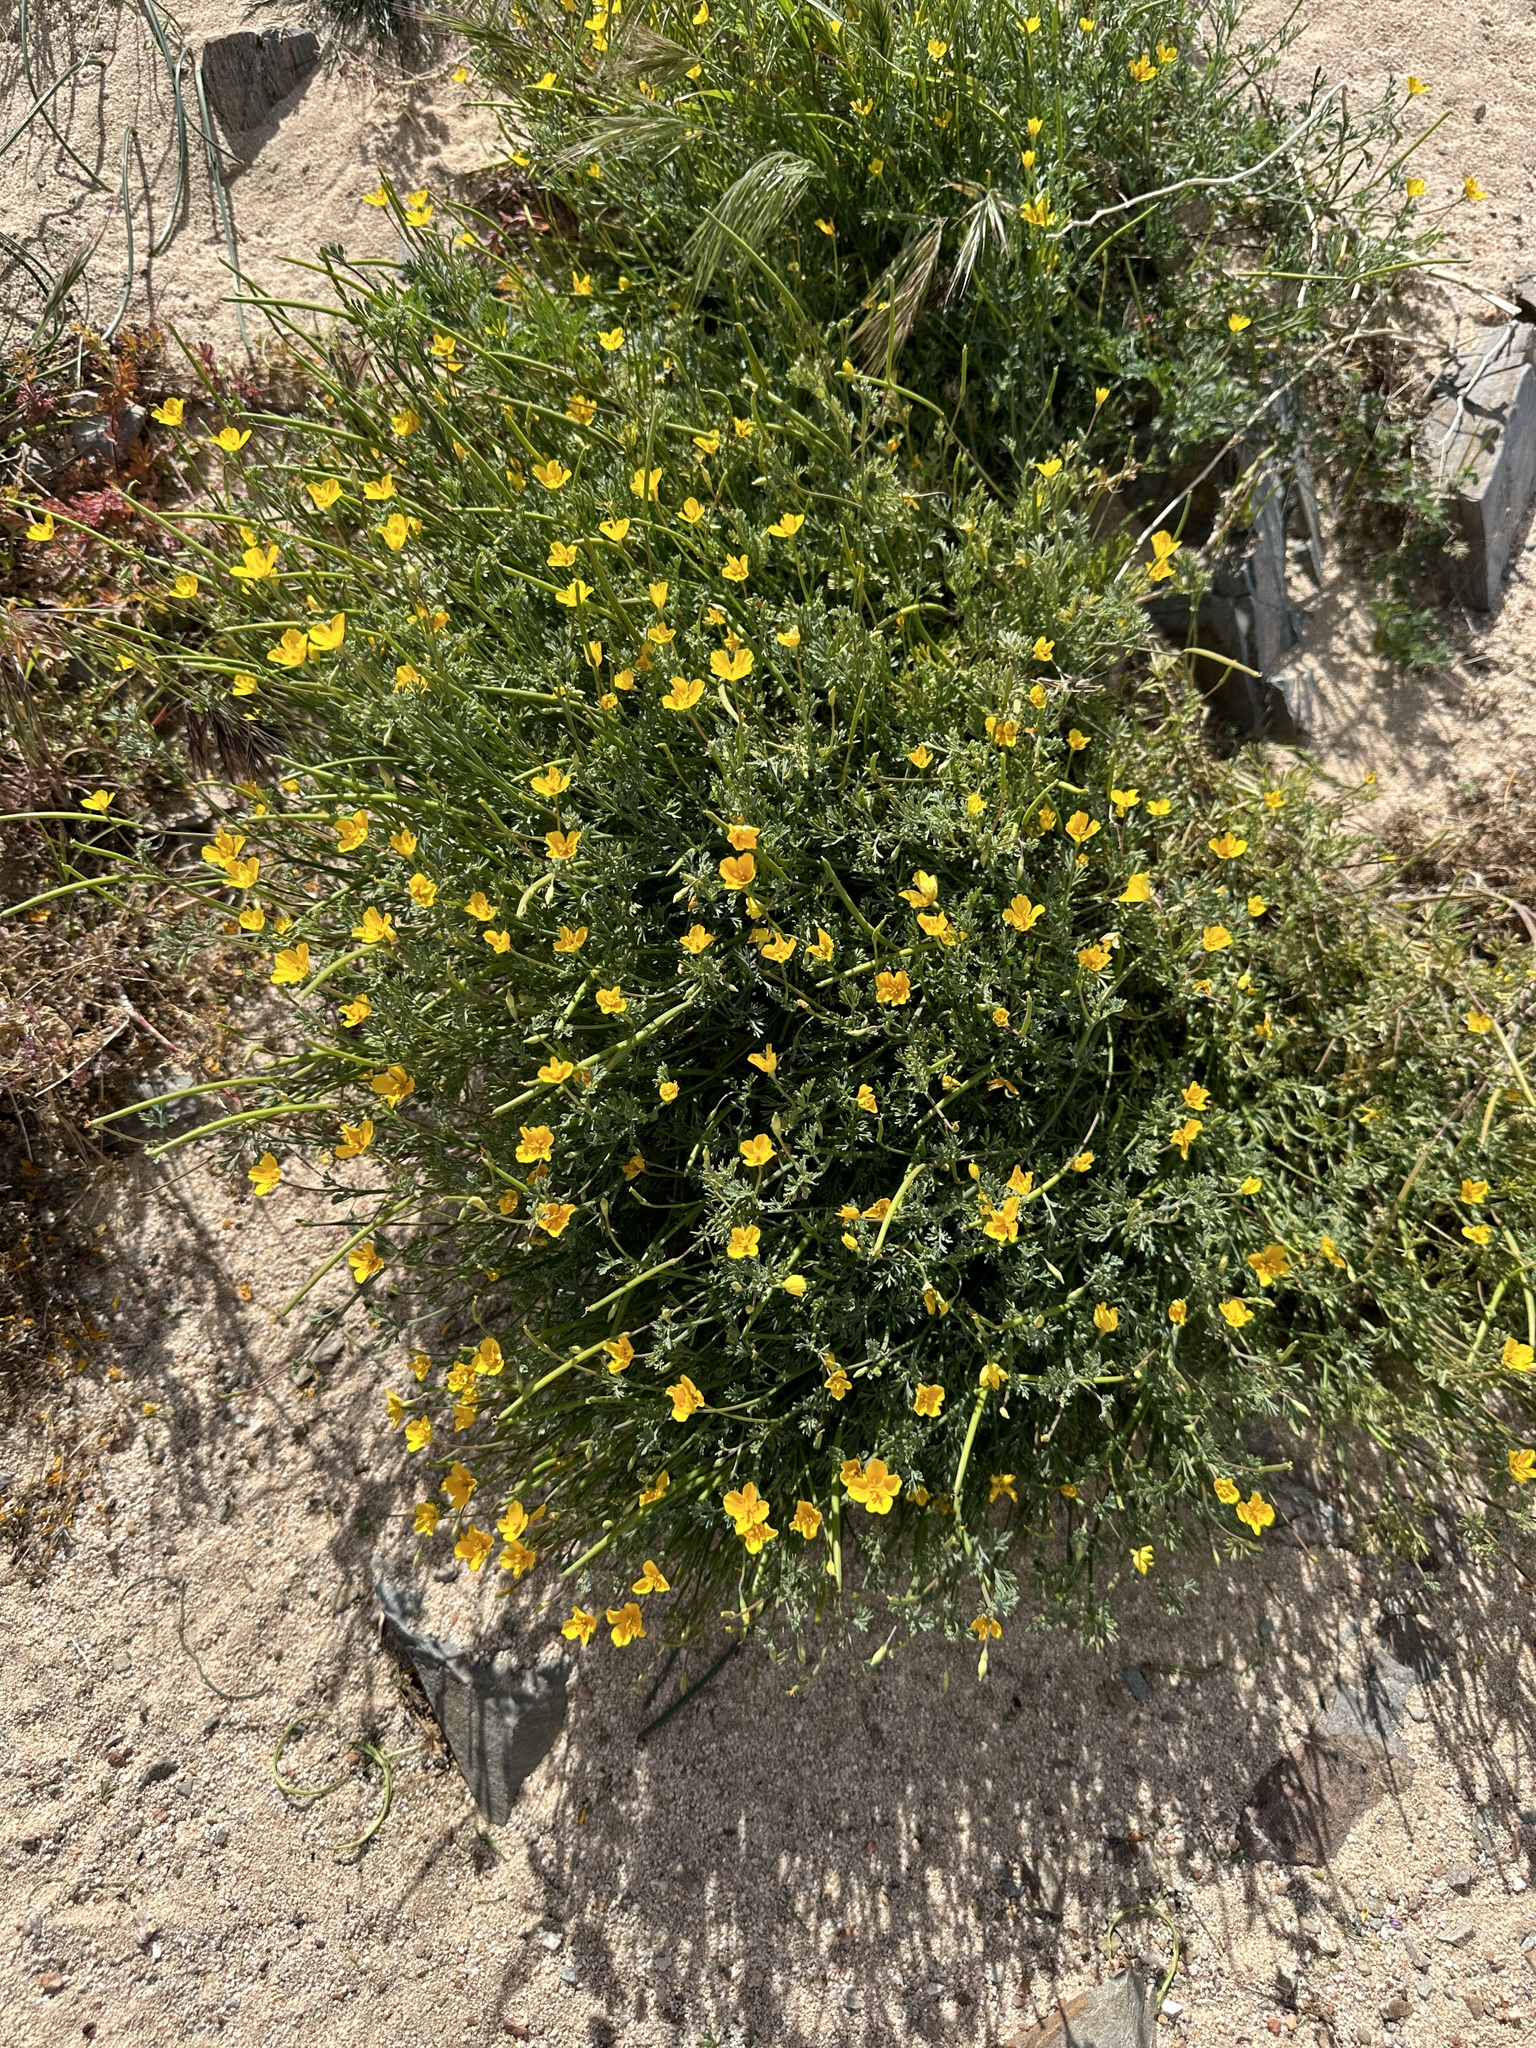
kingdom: Plantae
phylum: Tracheophyta
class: Magnoliopsida
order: Ranunculales
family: Papaveraceae
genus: Eschscholzia
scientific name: Eschscholzia minutiflora
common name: Small-flower california-poppy
